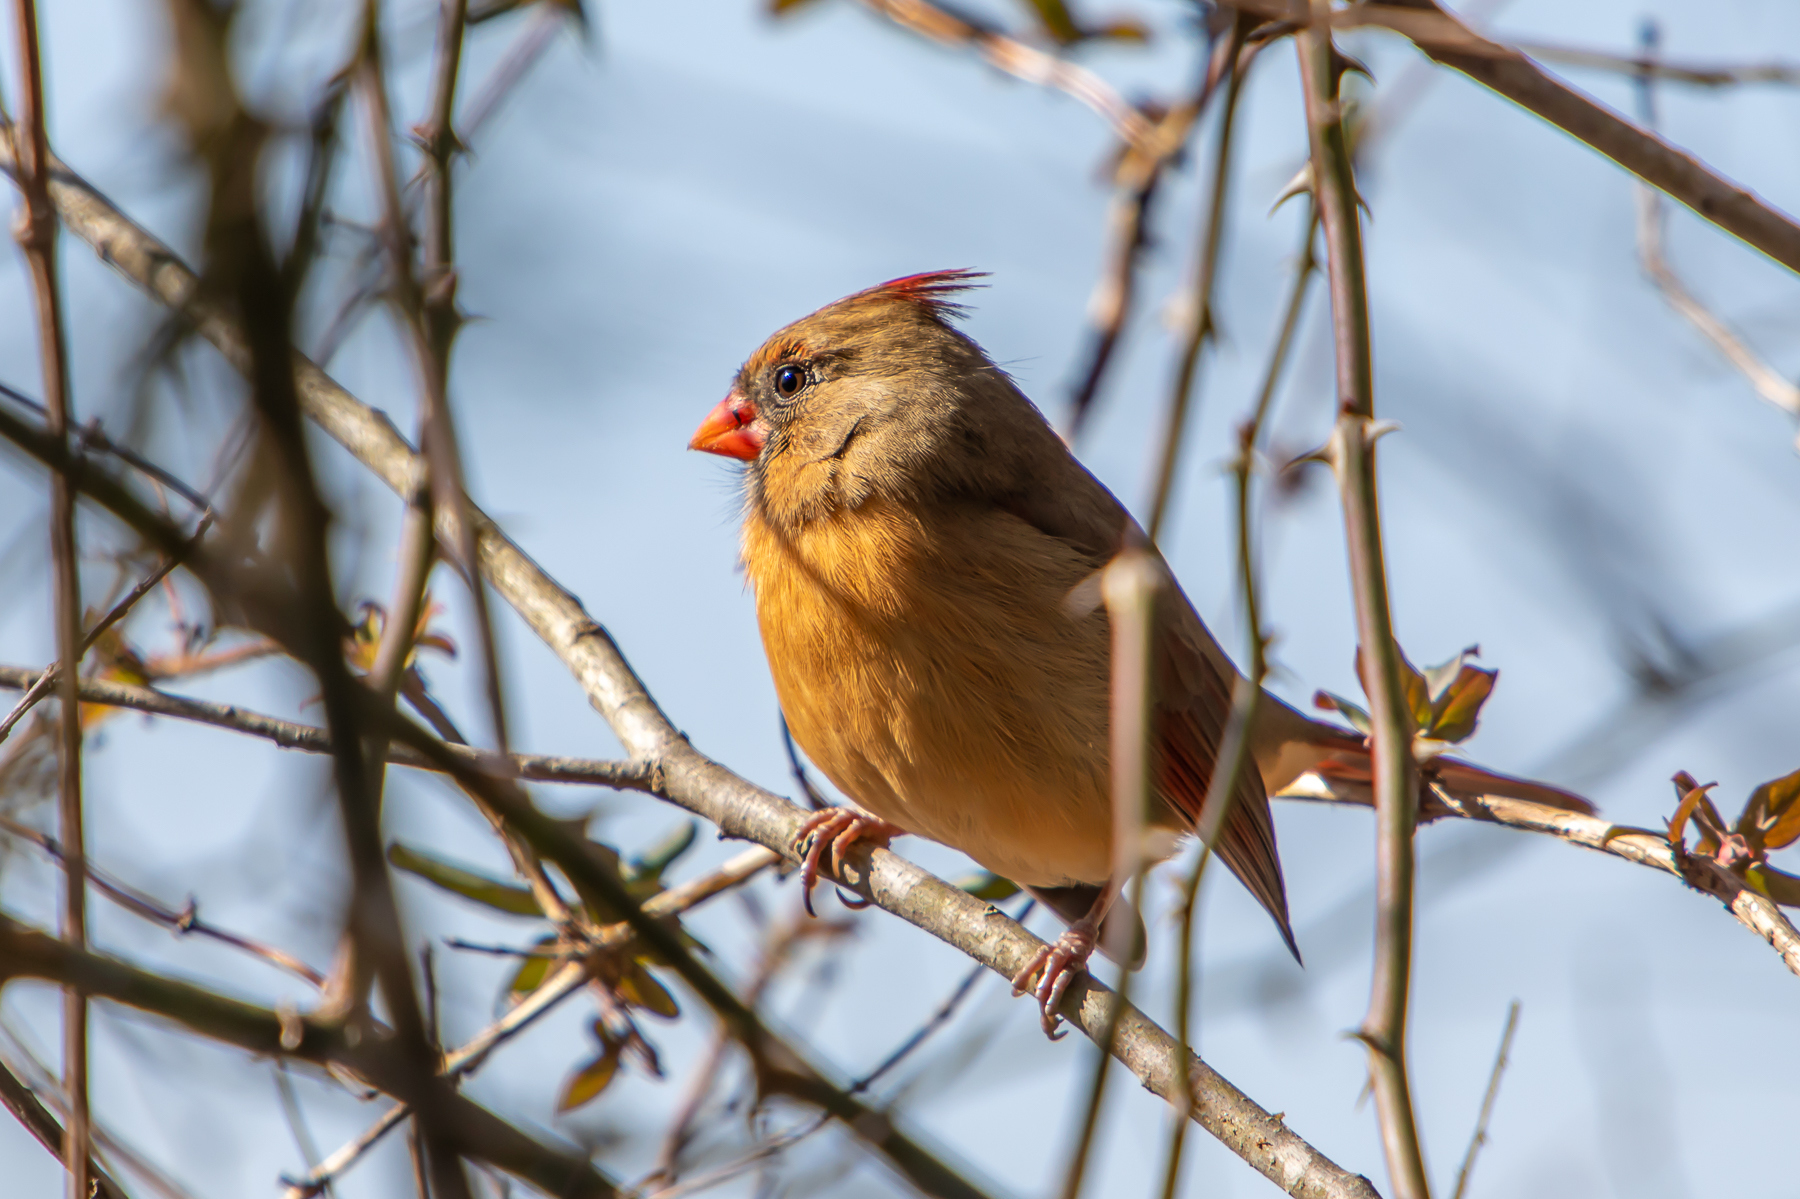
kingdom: Animalia
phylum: Chordata
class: Aves
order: Passeriformes
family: Cardinalidae
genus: Cardinalis
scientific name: Cardinalis cardinalis
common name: Northern cardinal
